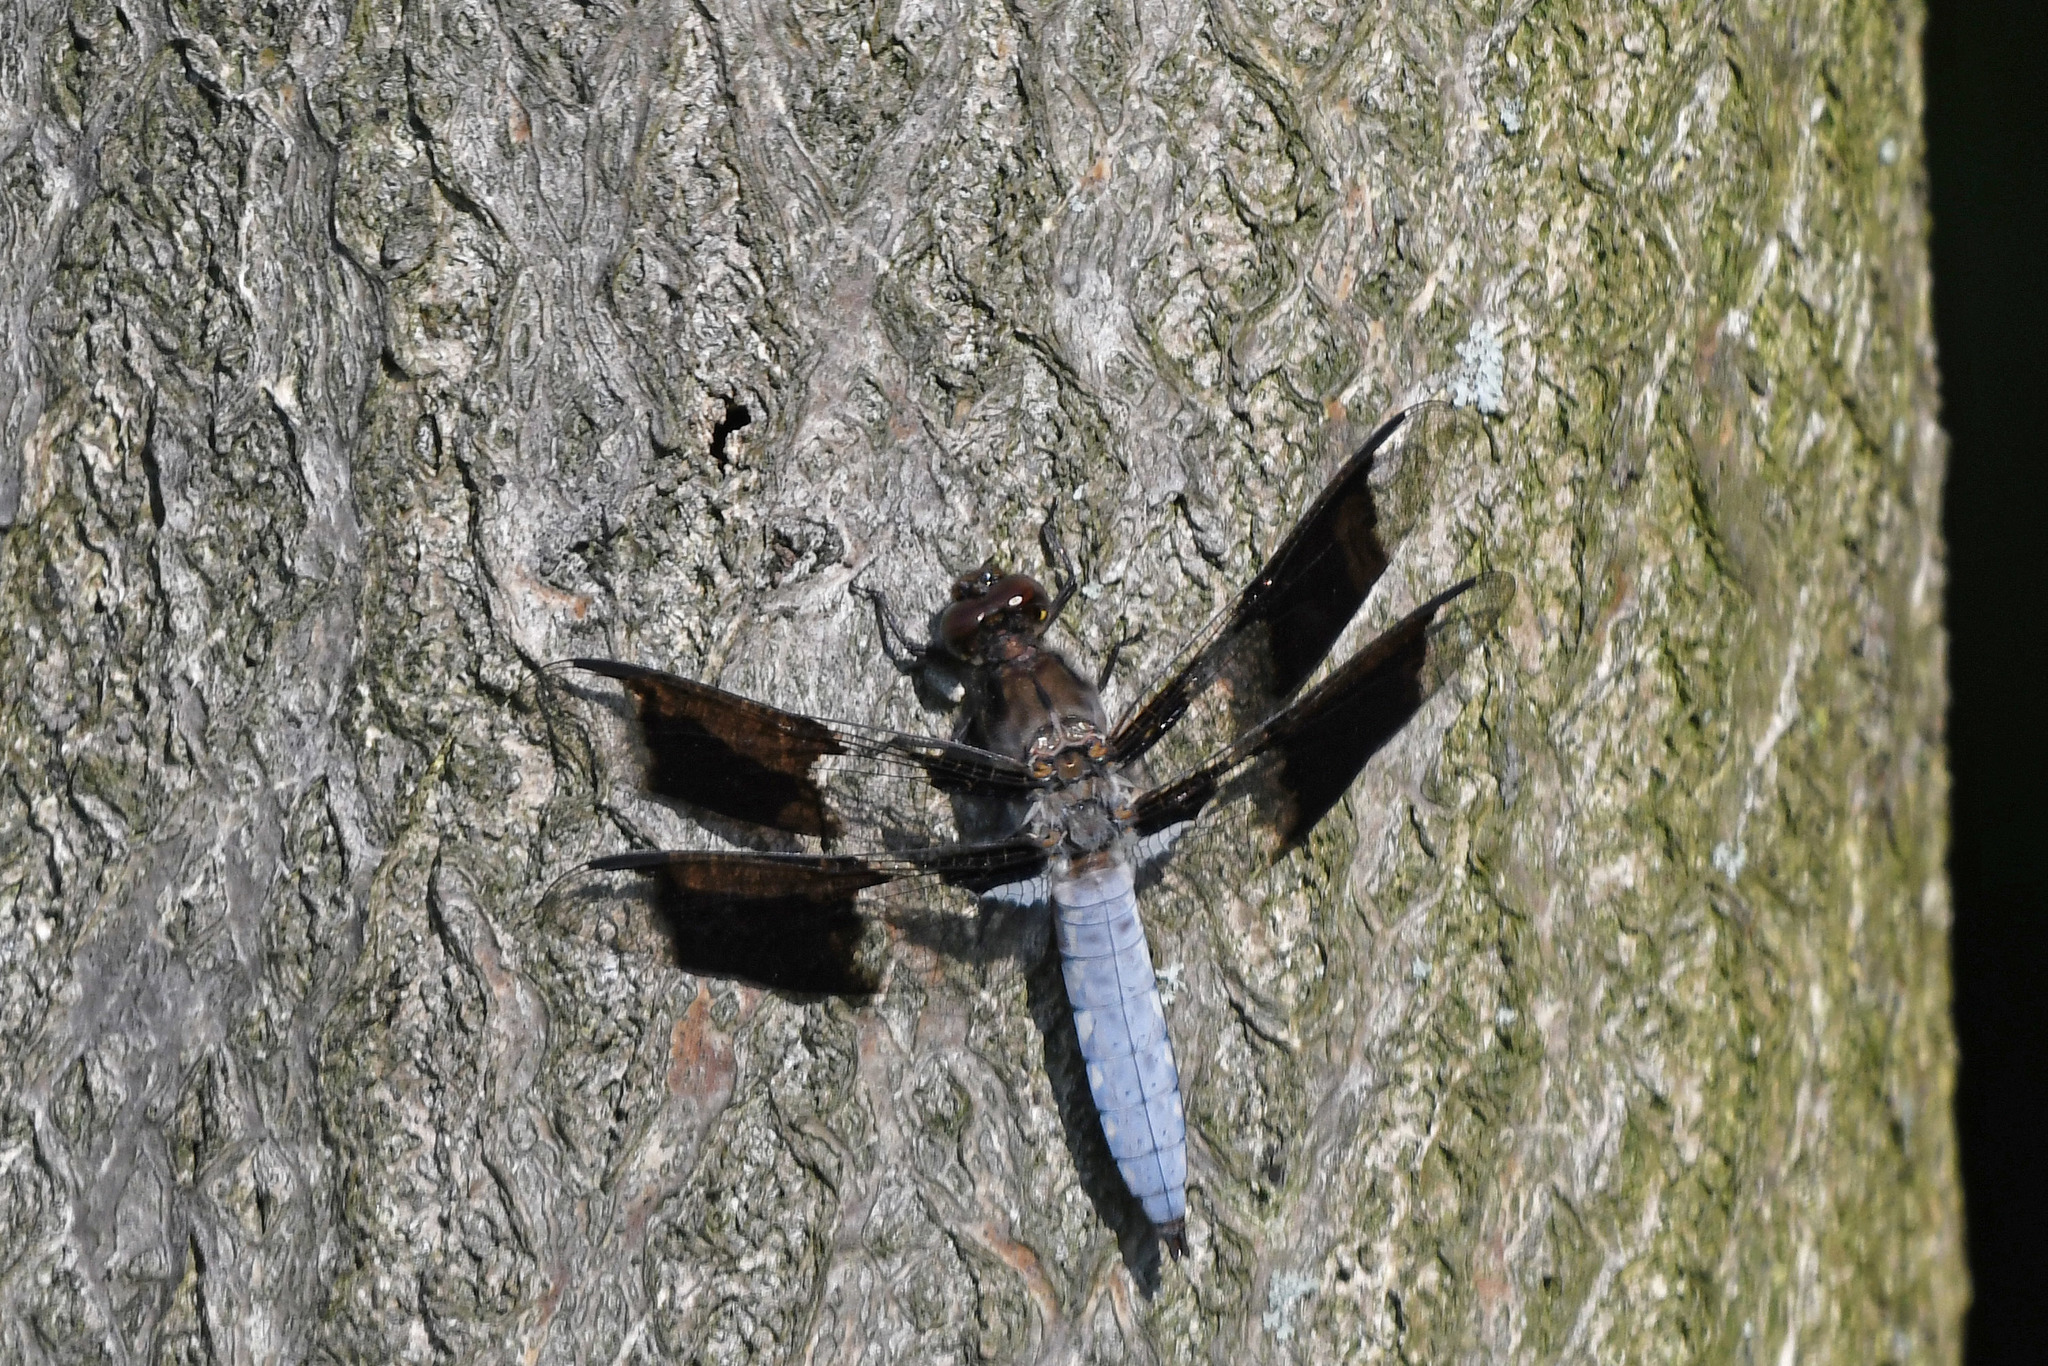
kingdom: Animalia
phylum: Arthropoda
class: Insecta
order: Odonata
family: Libellulidae
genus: Plathemis
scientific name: Plathemis lydia
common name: Common whitetail
